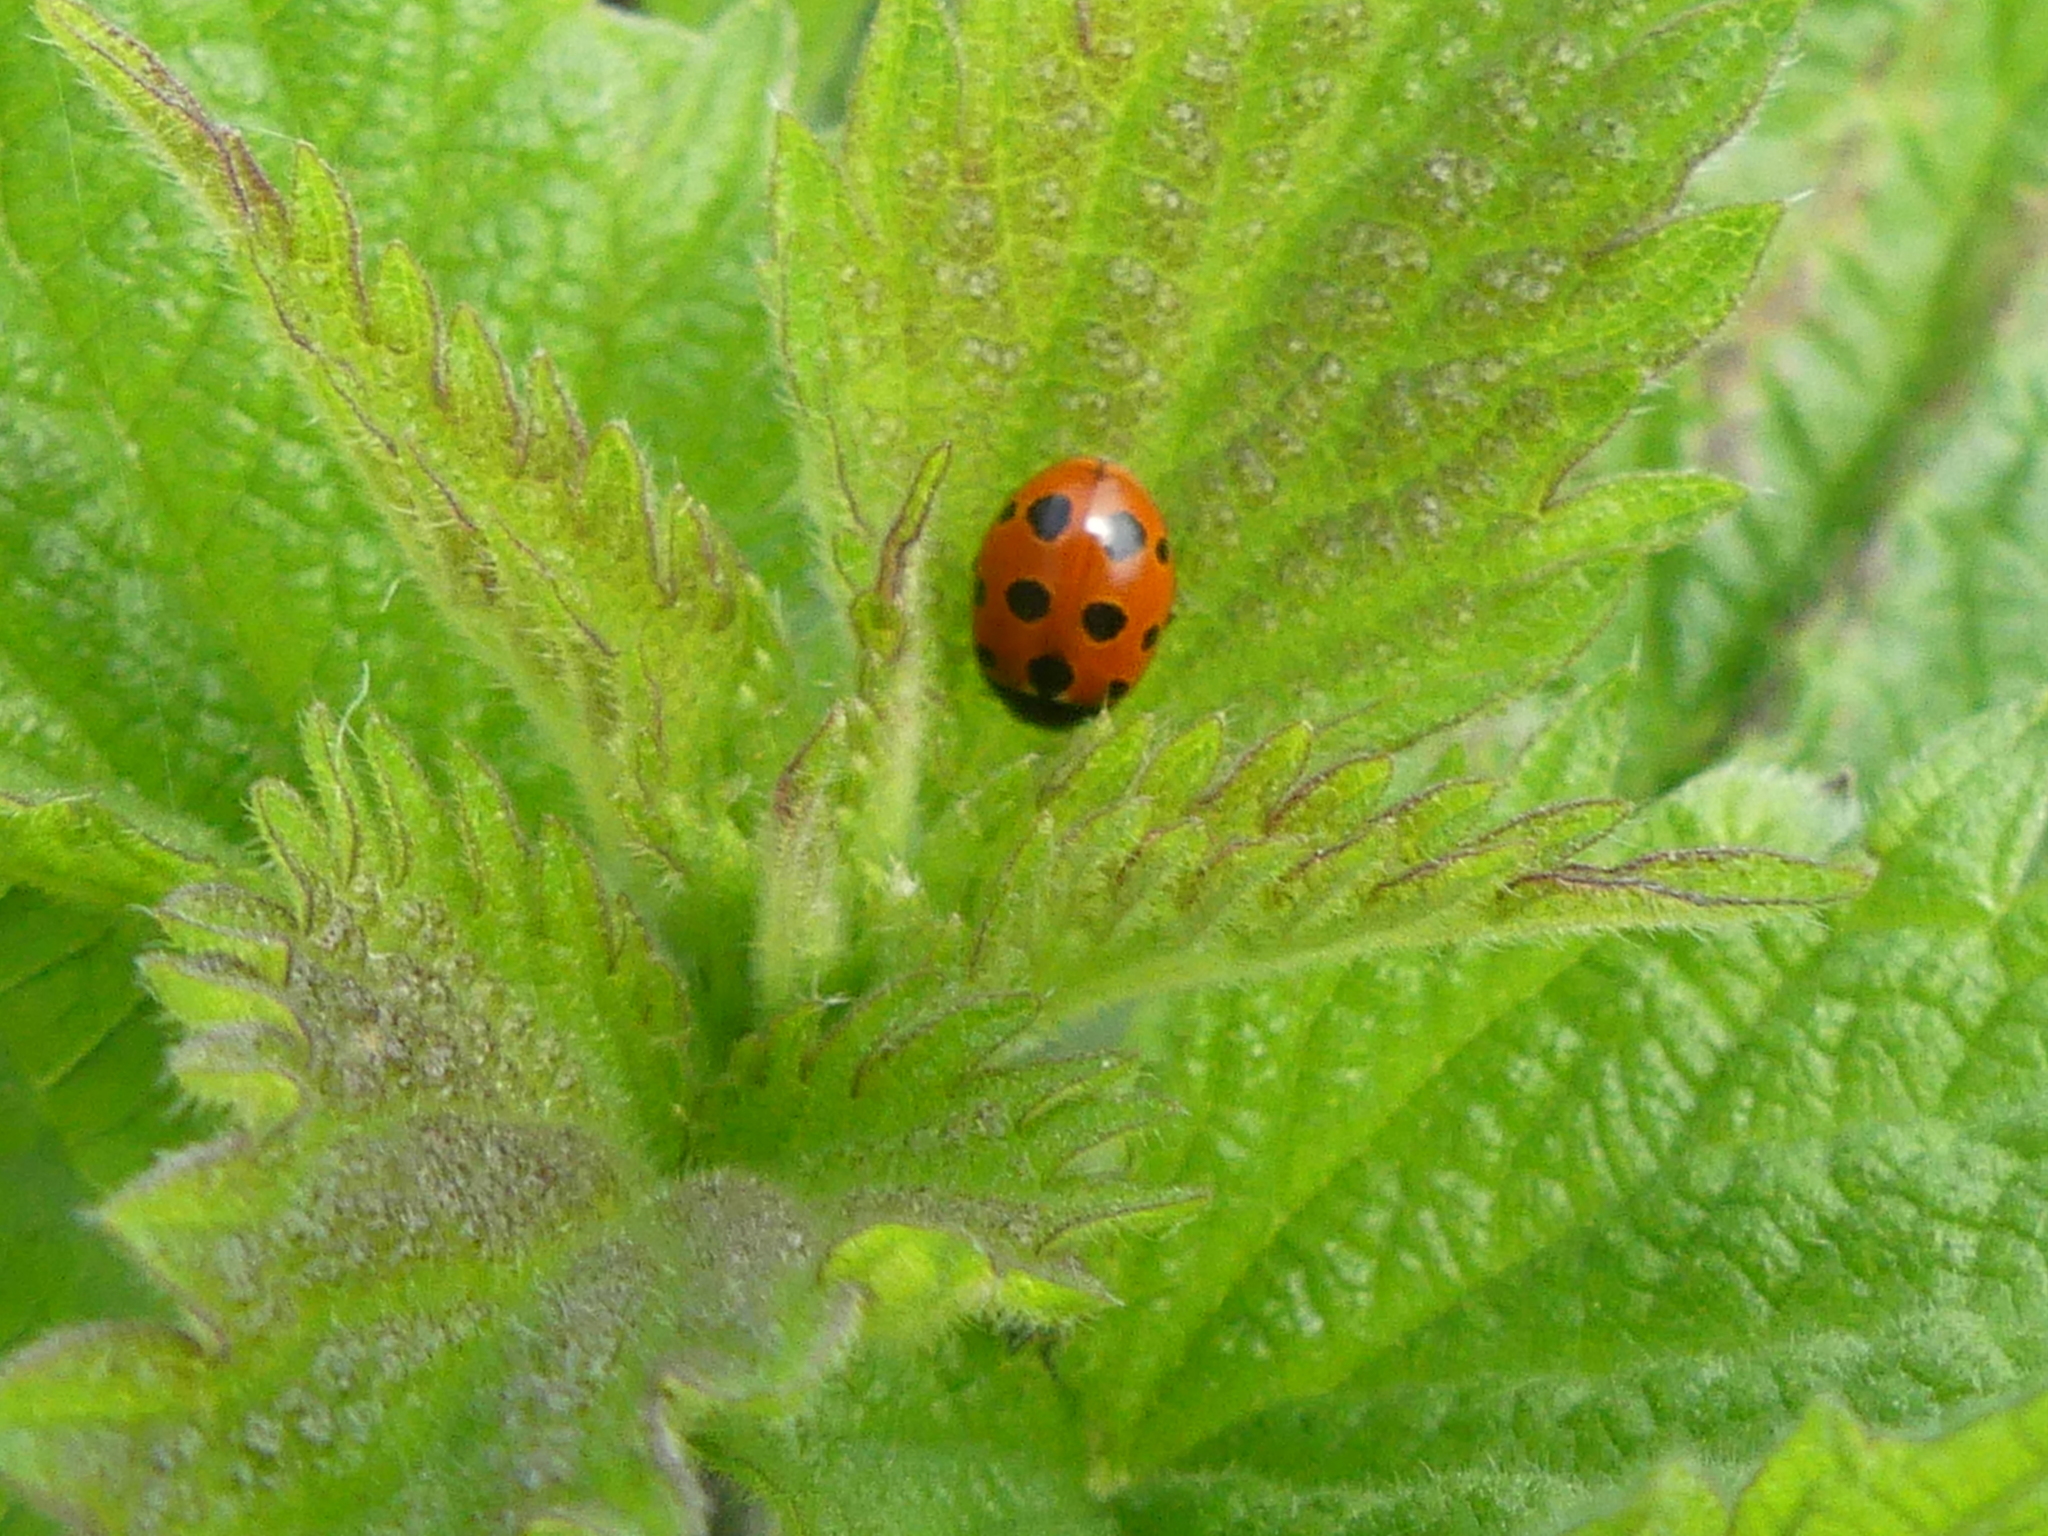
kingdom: Animalia
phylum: Arthropoda
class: Insecta
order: Coleoptera
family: Coccinellidae
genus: Coccinella
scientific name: Coccinella undecimpunctata
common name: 11-spot ladybird
